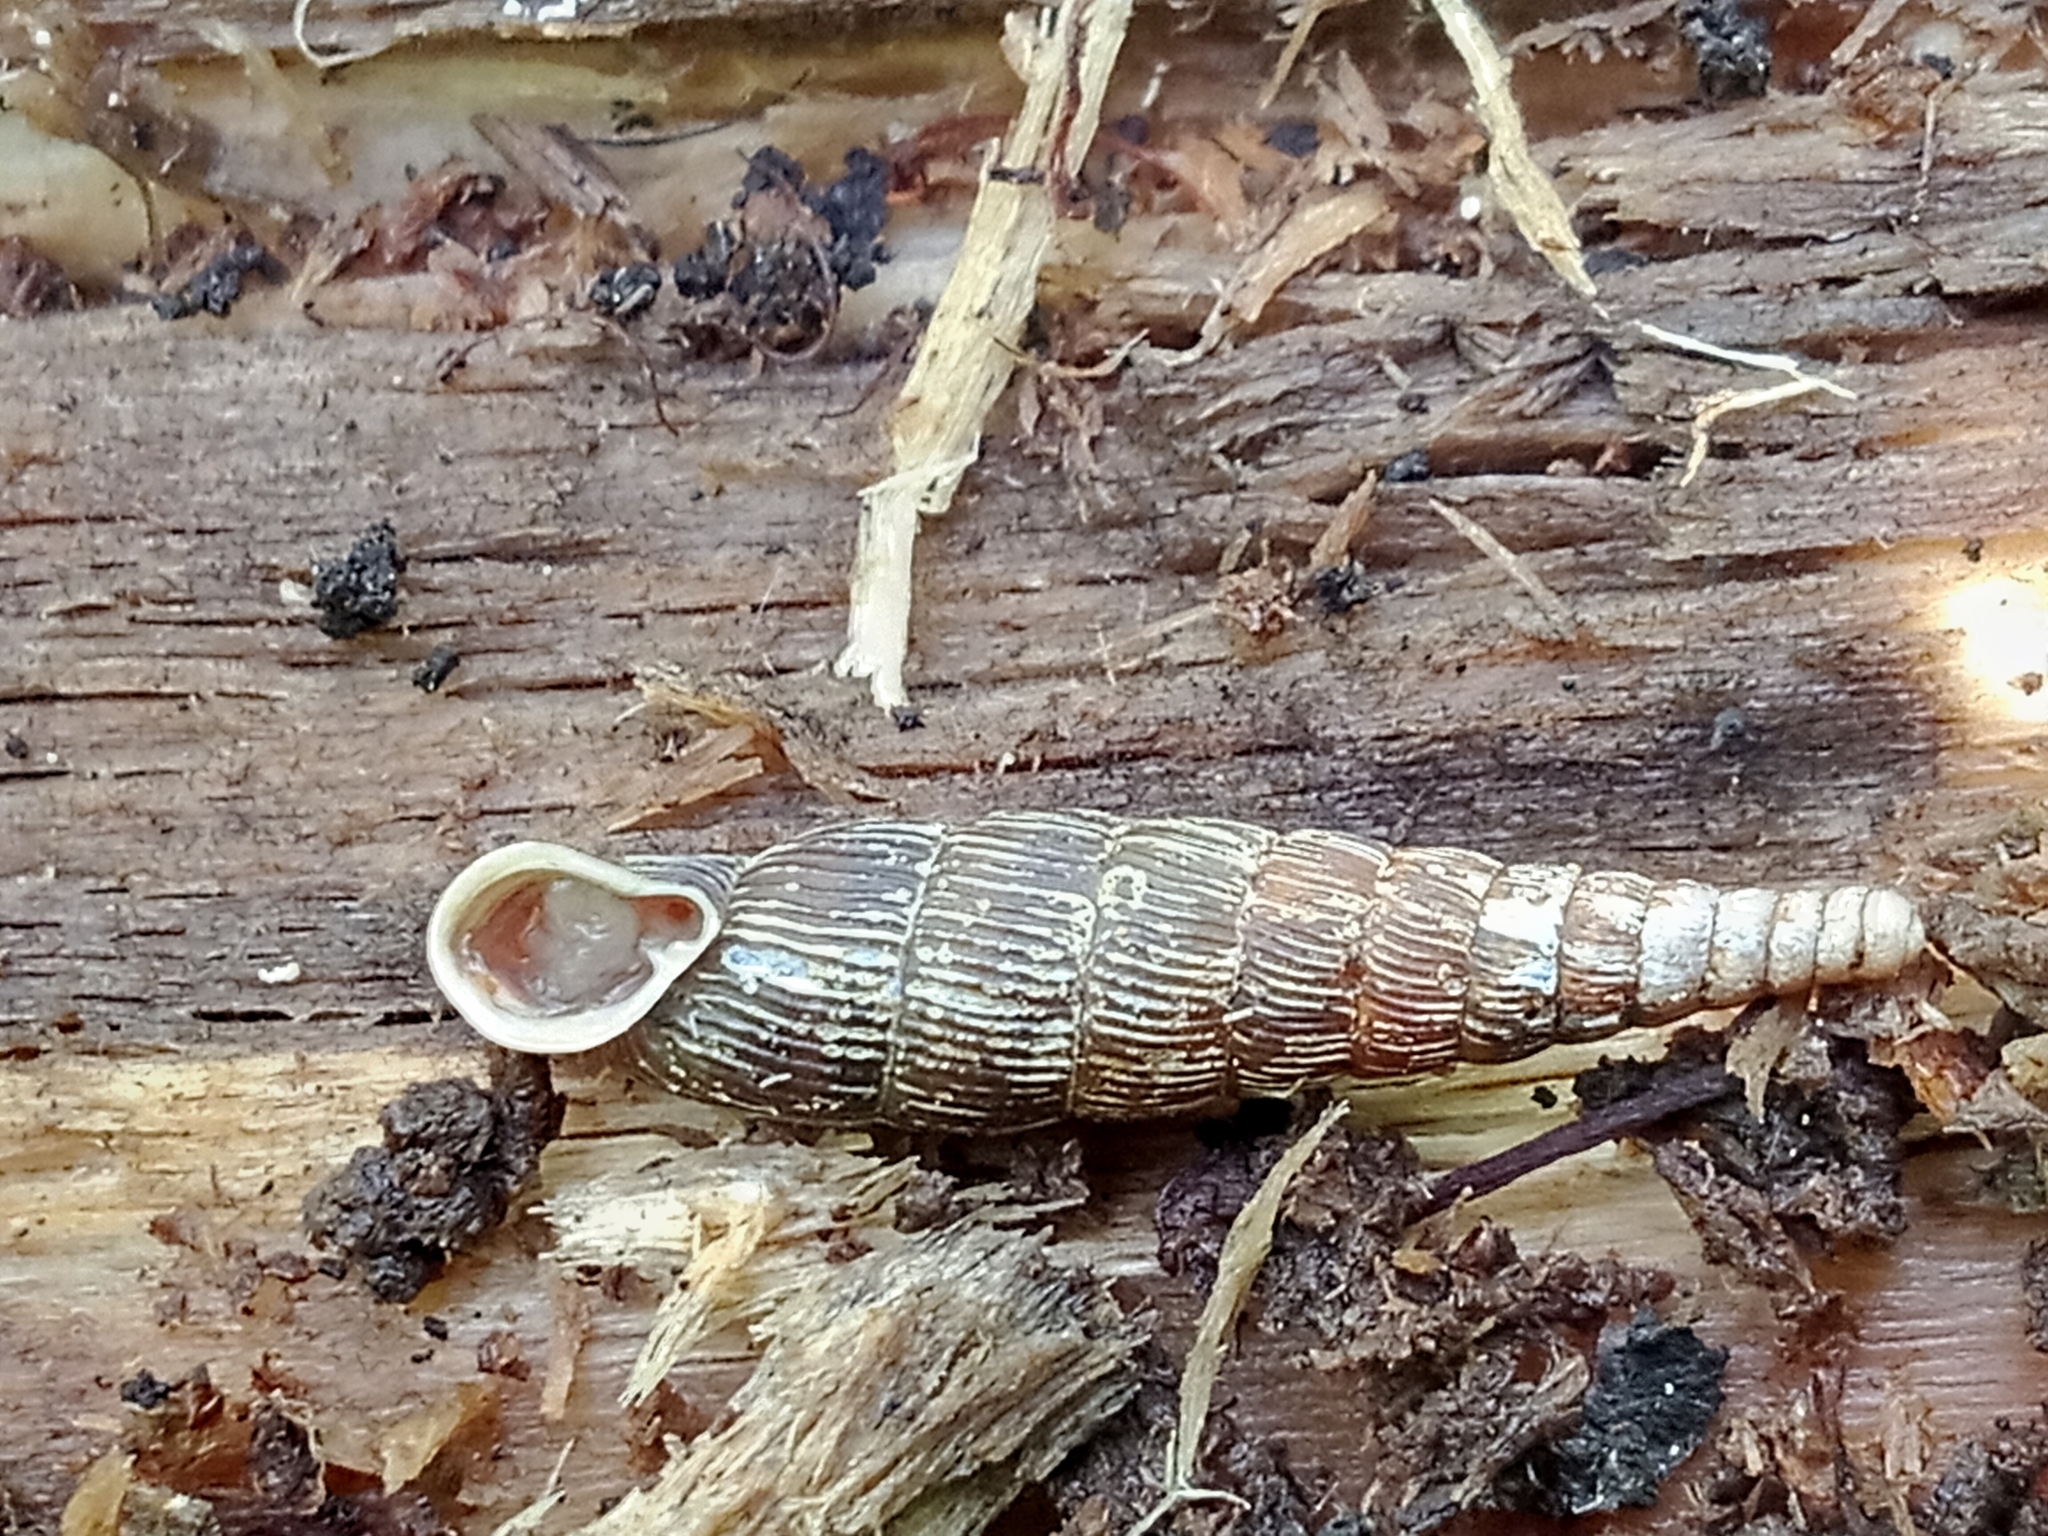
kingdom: Animalia
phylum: Mollusca
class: Gastropoda
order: Stylommatophora
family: Clausiliidae
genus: Strigillaria
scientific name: Strigillaria cana
